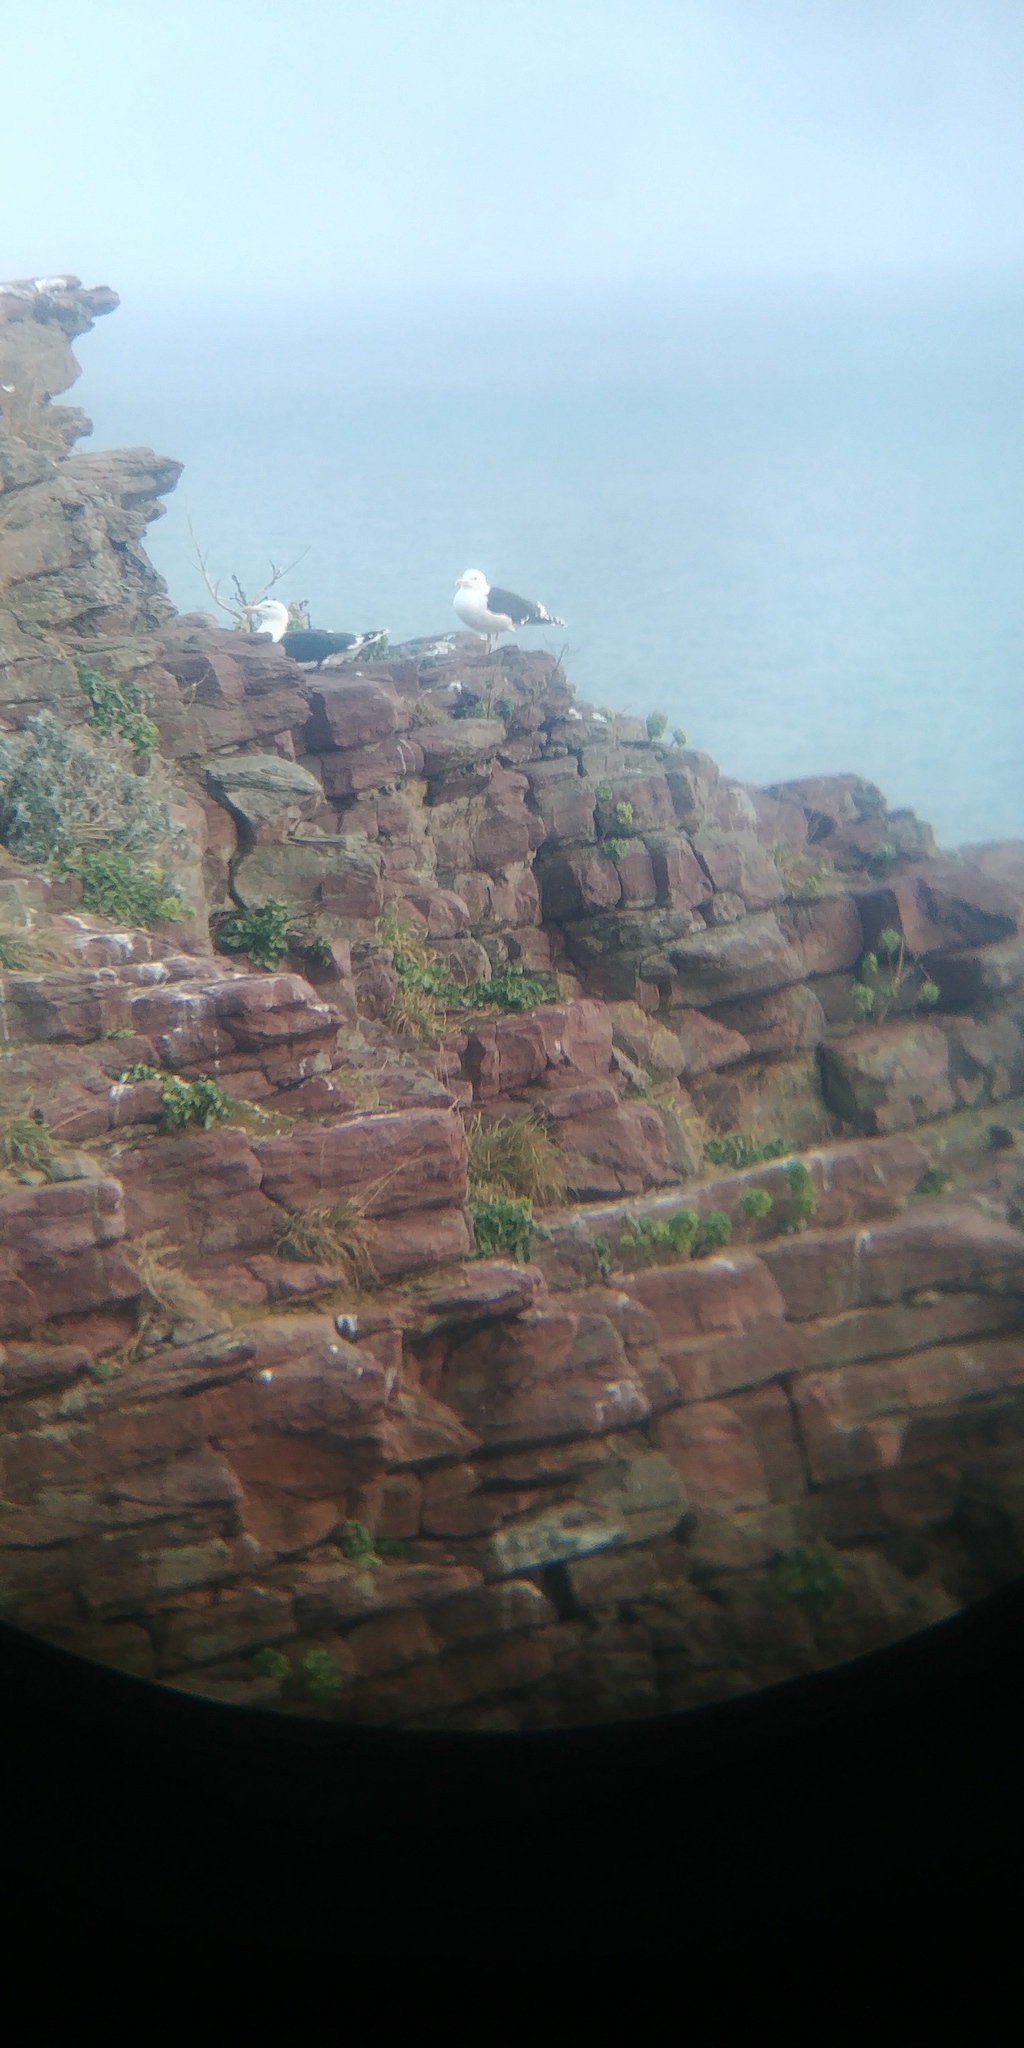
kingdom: Animalia
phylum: Chordata
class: Aves
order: Charadriiformes
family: Laridae
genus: Larus
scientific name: Larus marinus
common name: Great black-backed gull
